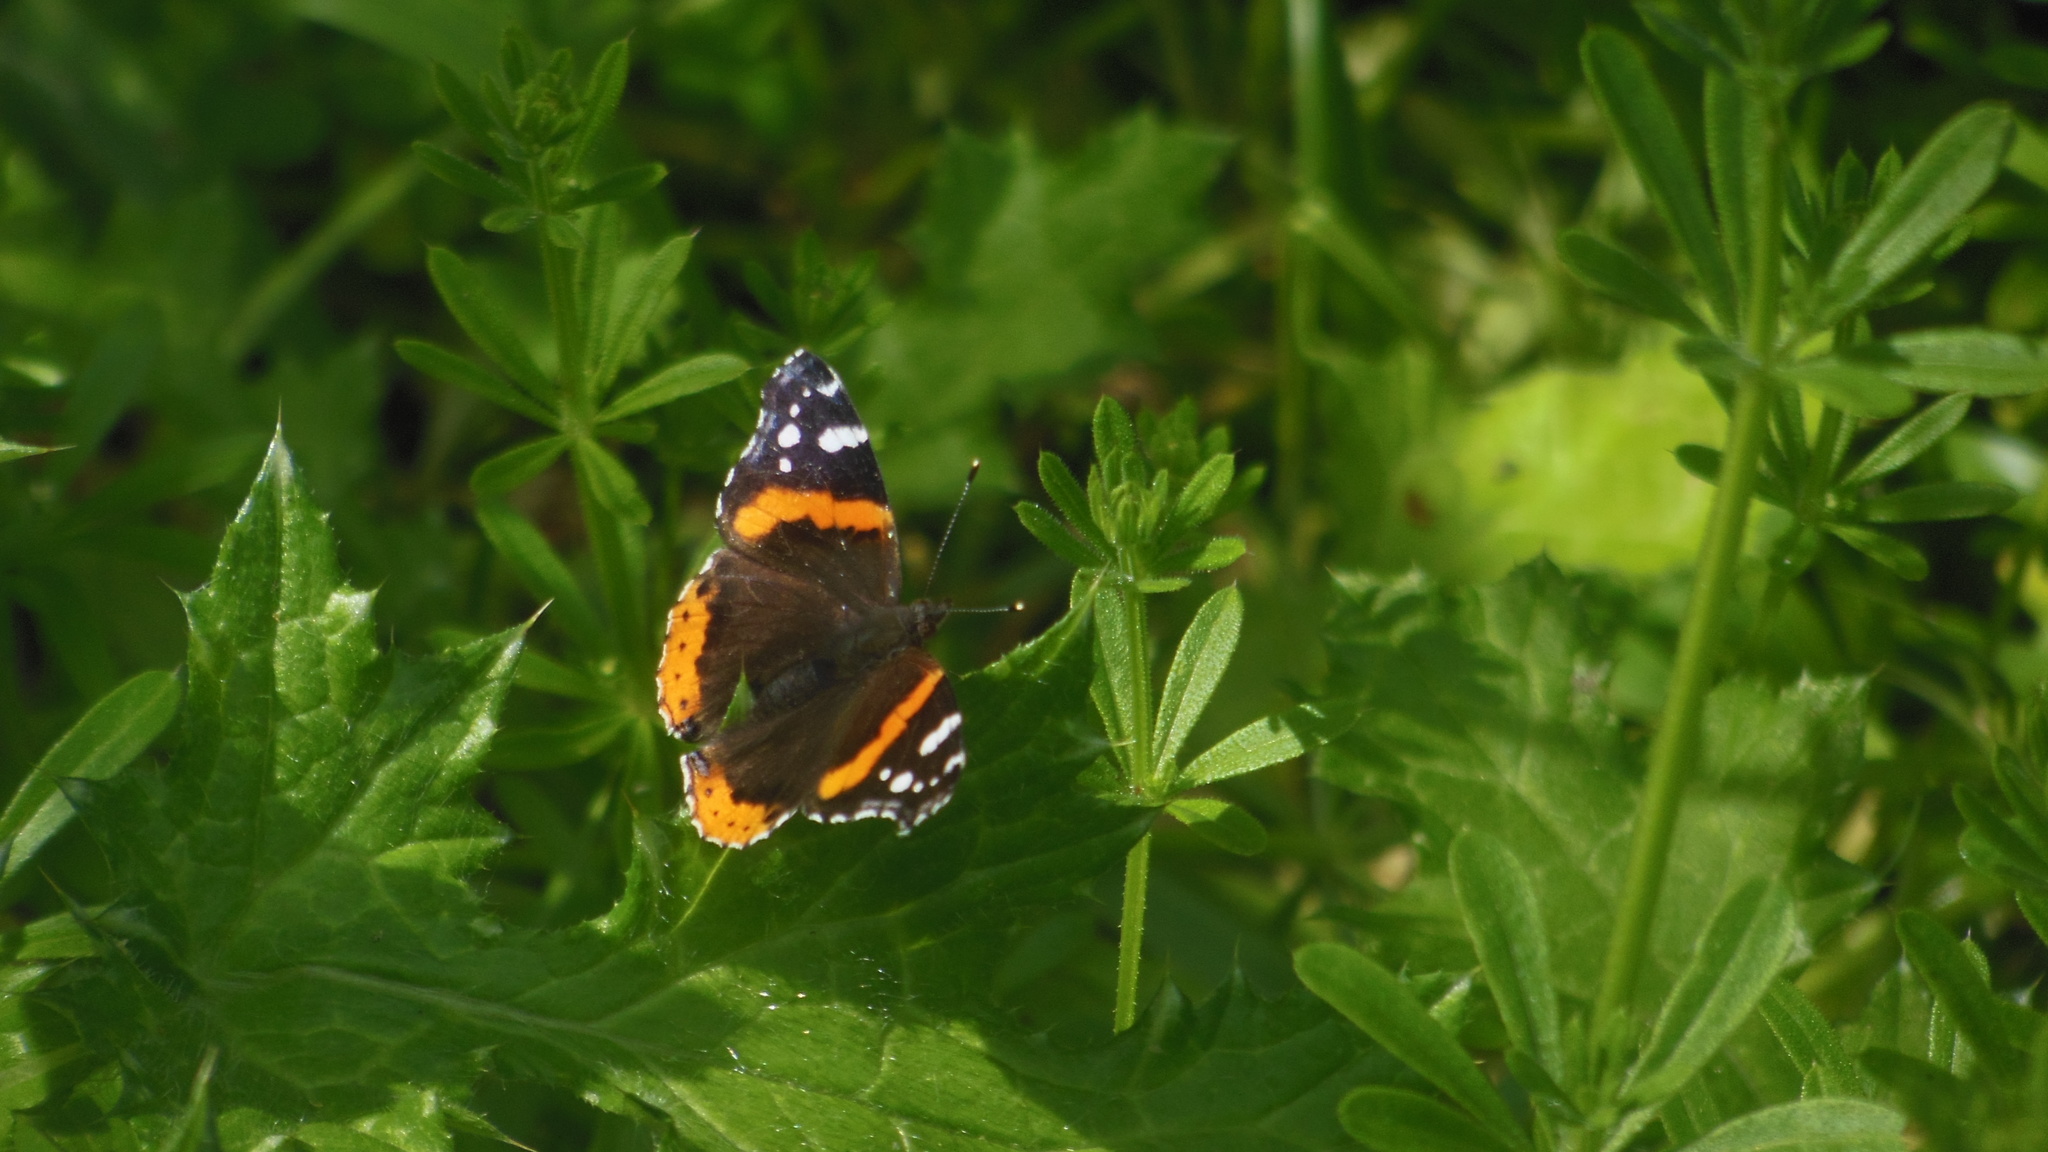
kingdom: Animalia
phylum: Arthropoda
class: Insecta
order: Lepidoptera
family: Nymphalidae
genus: Vanessa
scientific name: Vanessa atalanta
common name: Red admiral
